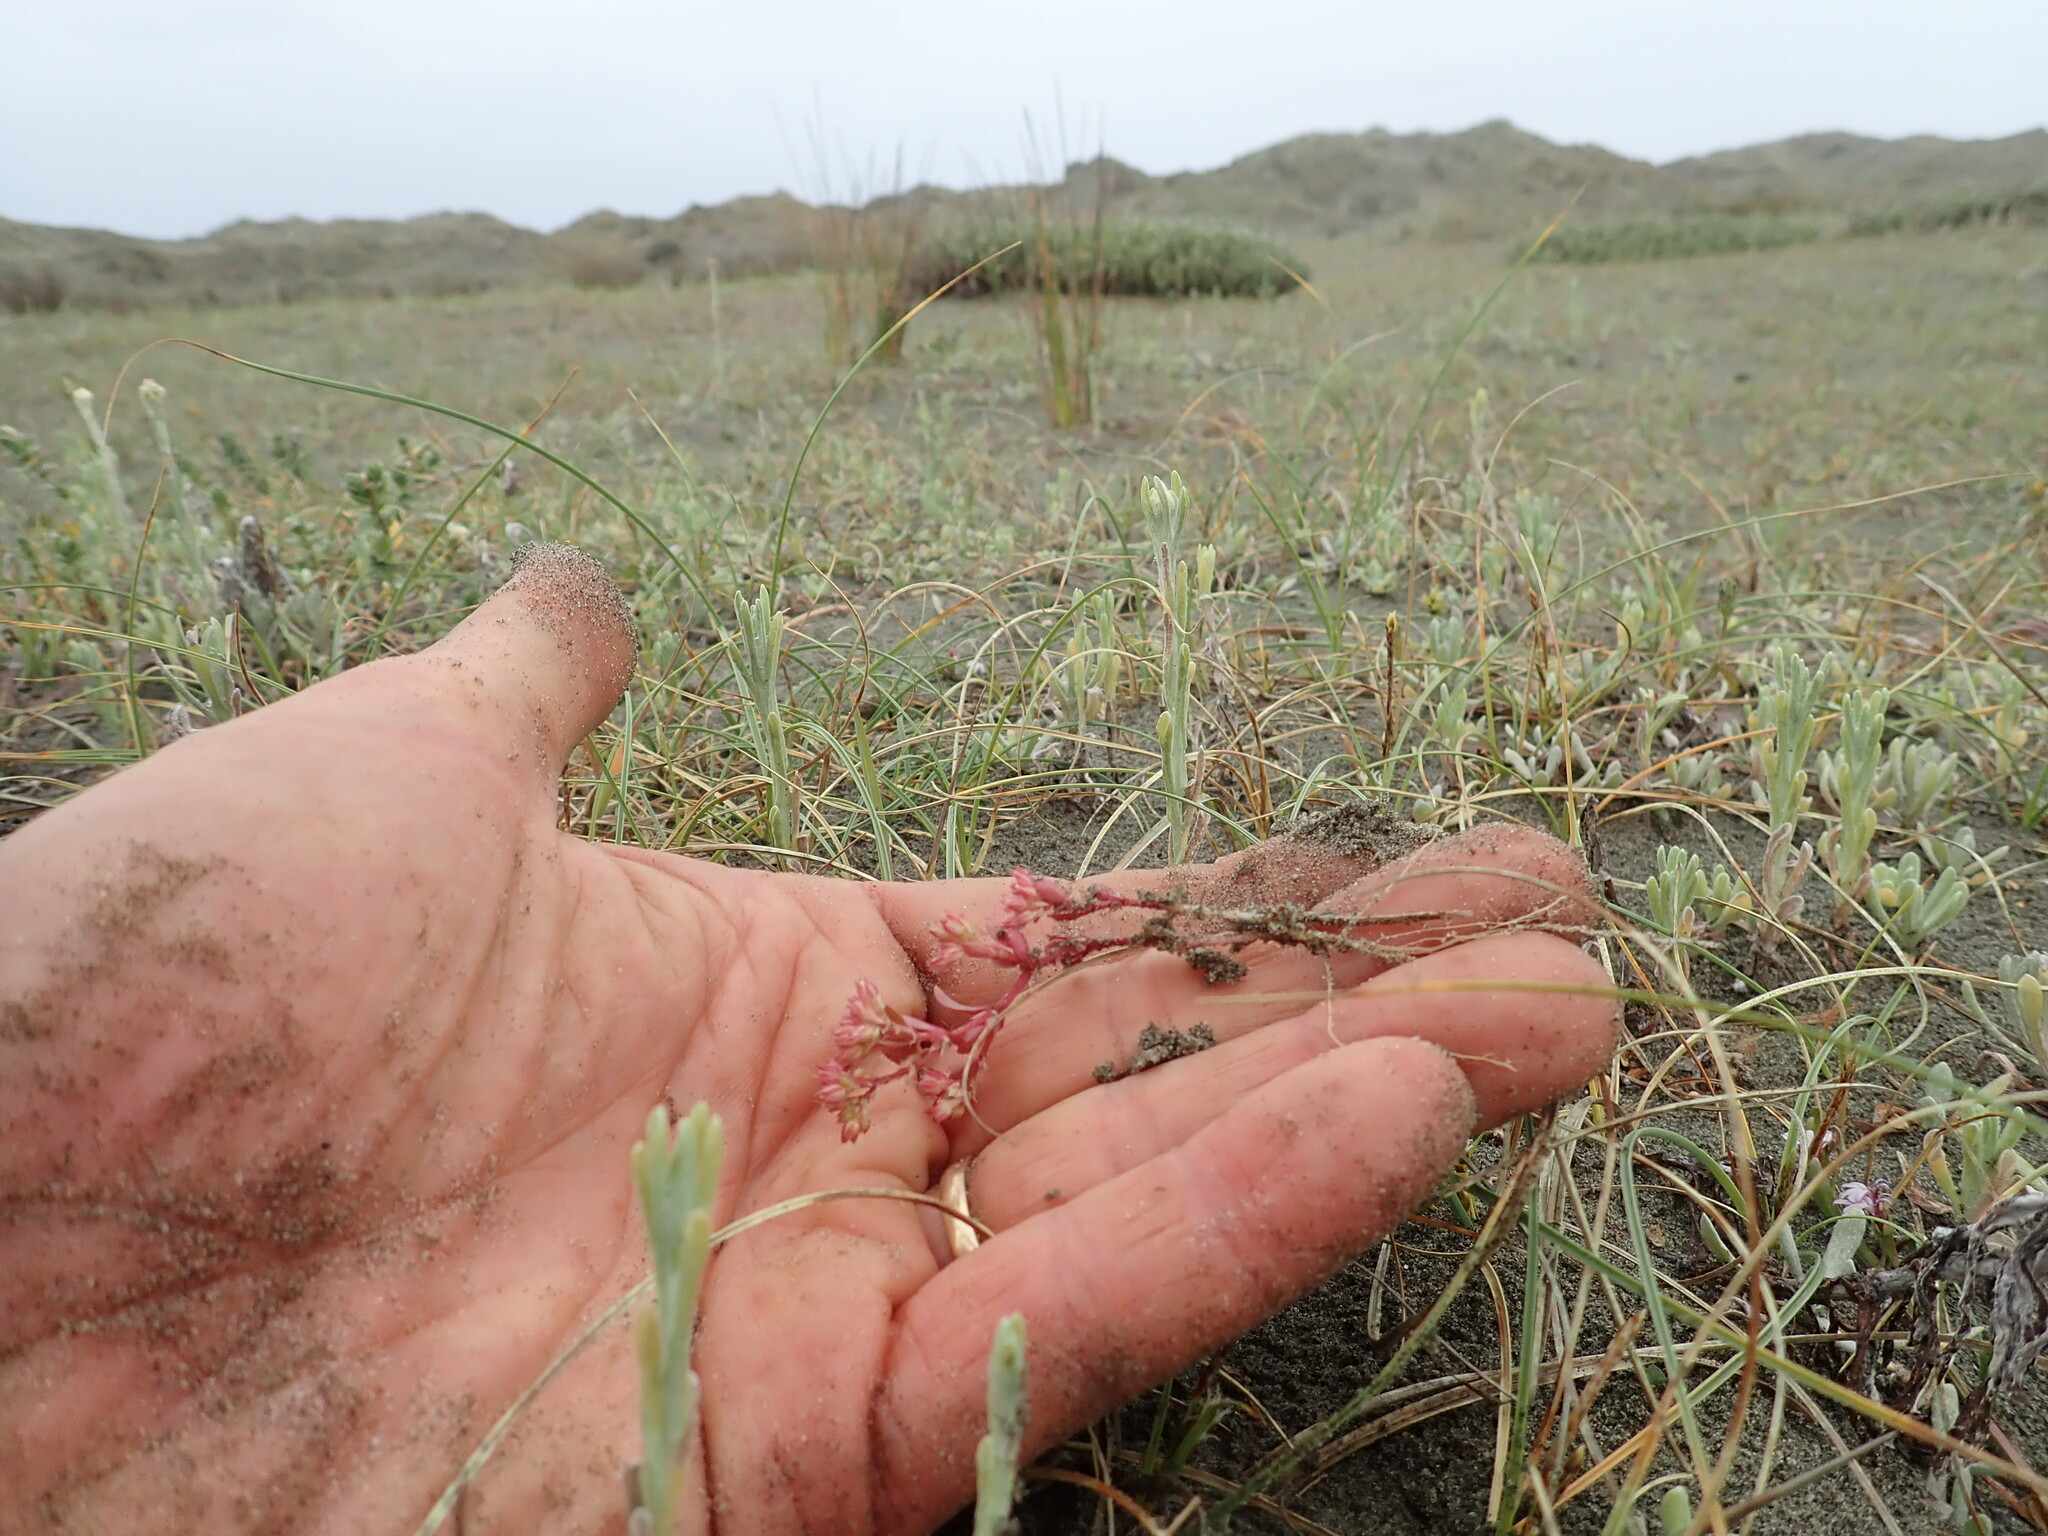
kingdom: Plantae
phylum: Tracheophyta
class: Magnoliopsida
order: Caryophyllales
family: Caryophyllaceae
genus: Polycarpon
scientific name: Polycarpon tetraphyllum
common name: Four-leaved all-seed
